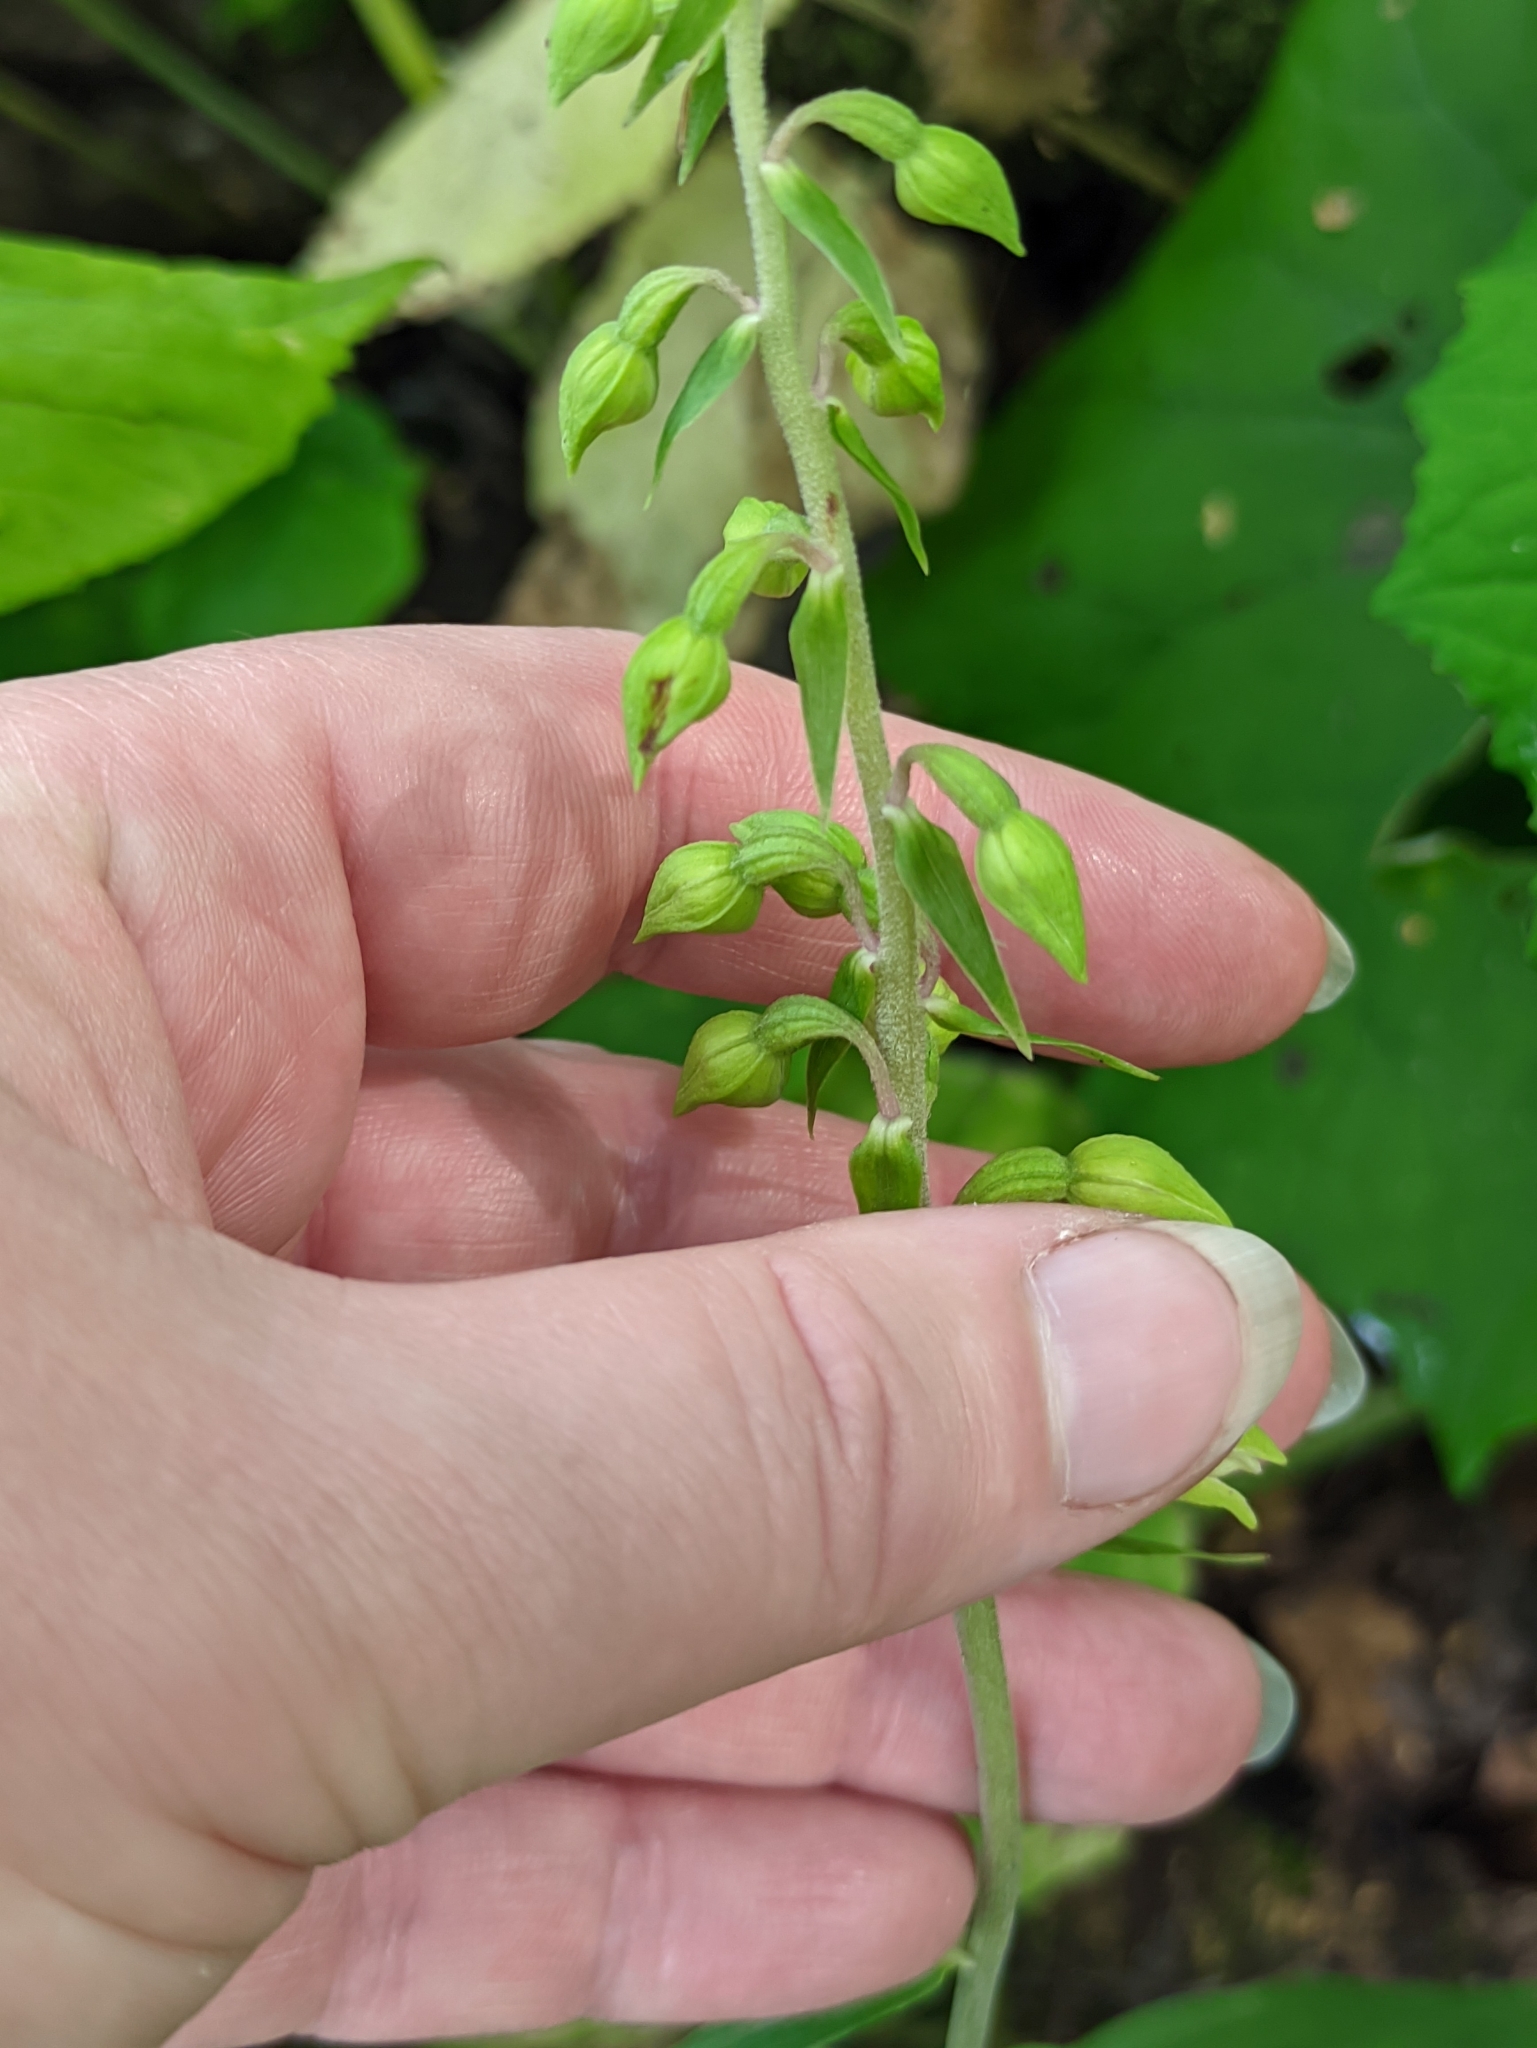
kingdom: Plantae
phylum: Tracheophyta
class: Liliopsida
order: Asparagales
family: Orchidaceae
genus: Epipactis
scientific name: Epipactis helleborine
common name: Broad-leaved helleborine
